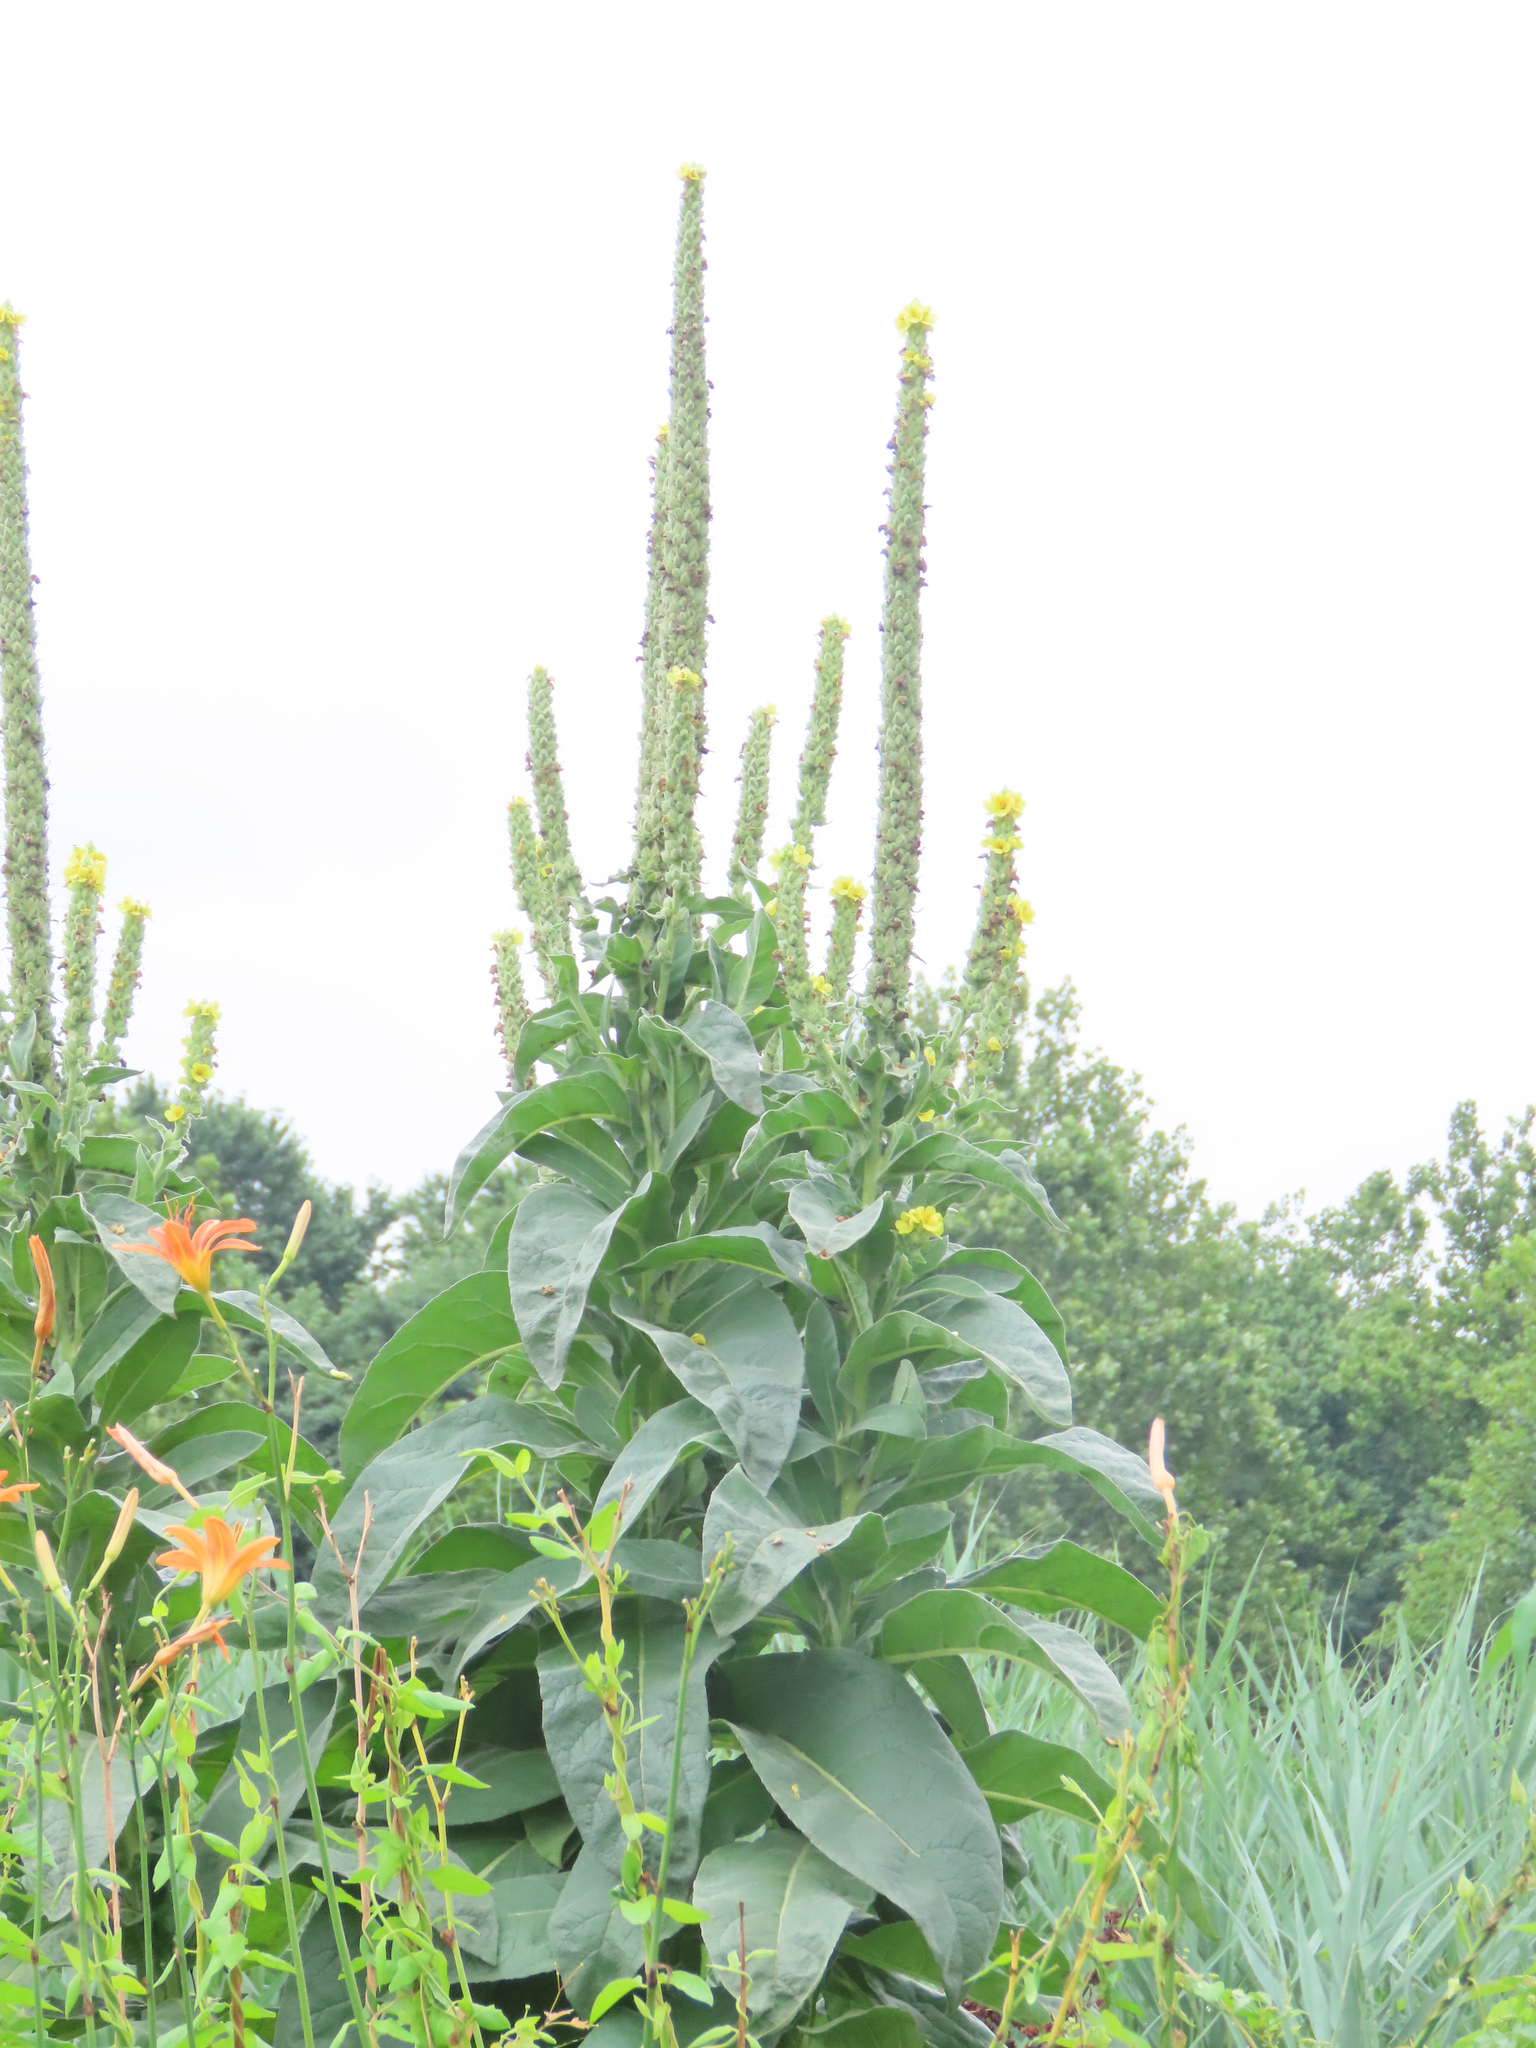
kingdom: Plantae
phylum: Tracheophyta
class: Magnoliopsida
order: Lamiales
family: Scrophulariaceae
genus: Verbascum
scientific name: Verbascum thapsus
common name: Common mullein
